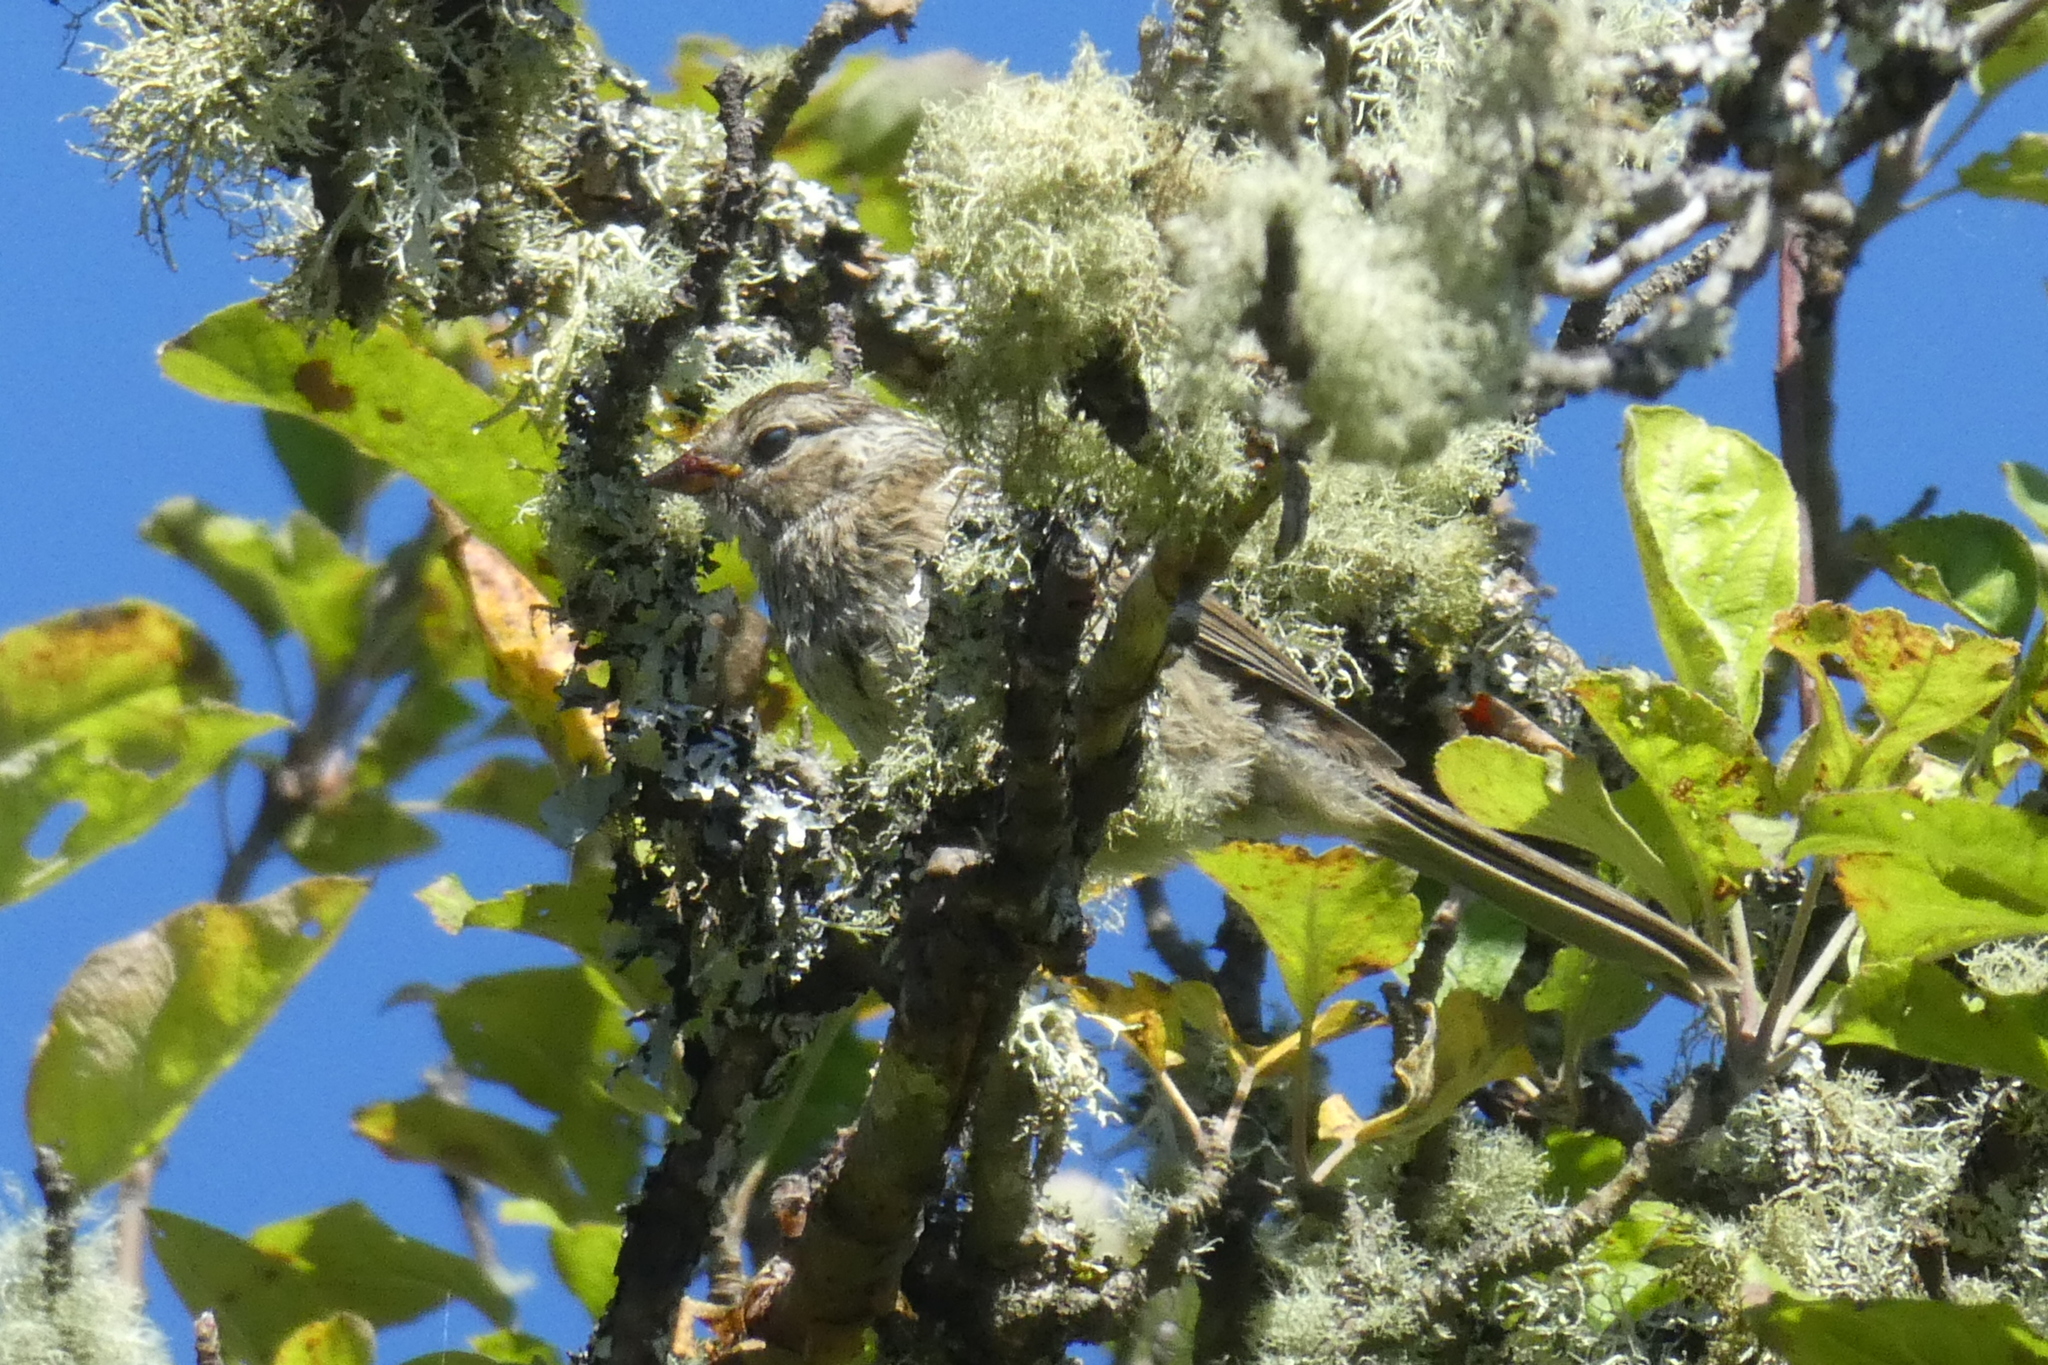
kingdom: Animalia
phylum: Chordata
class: Aves
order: Passeriformes
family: Passerellidae
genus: Zonotrichia
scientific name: Zonotrichia leucophrys
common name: White-crowned sparrow
